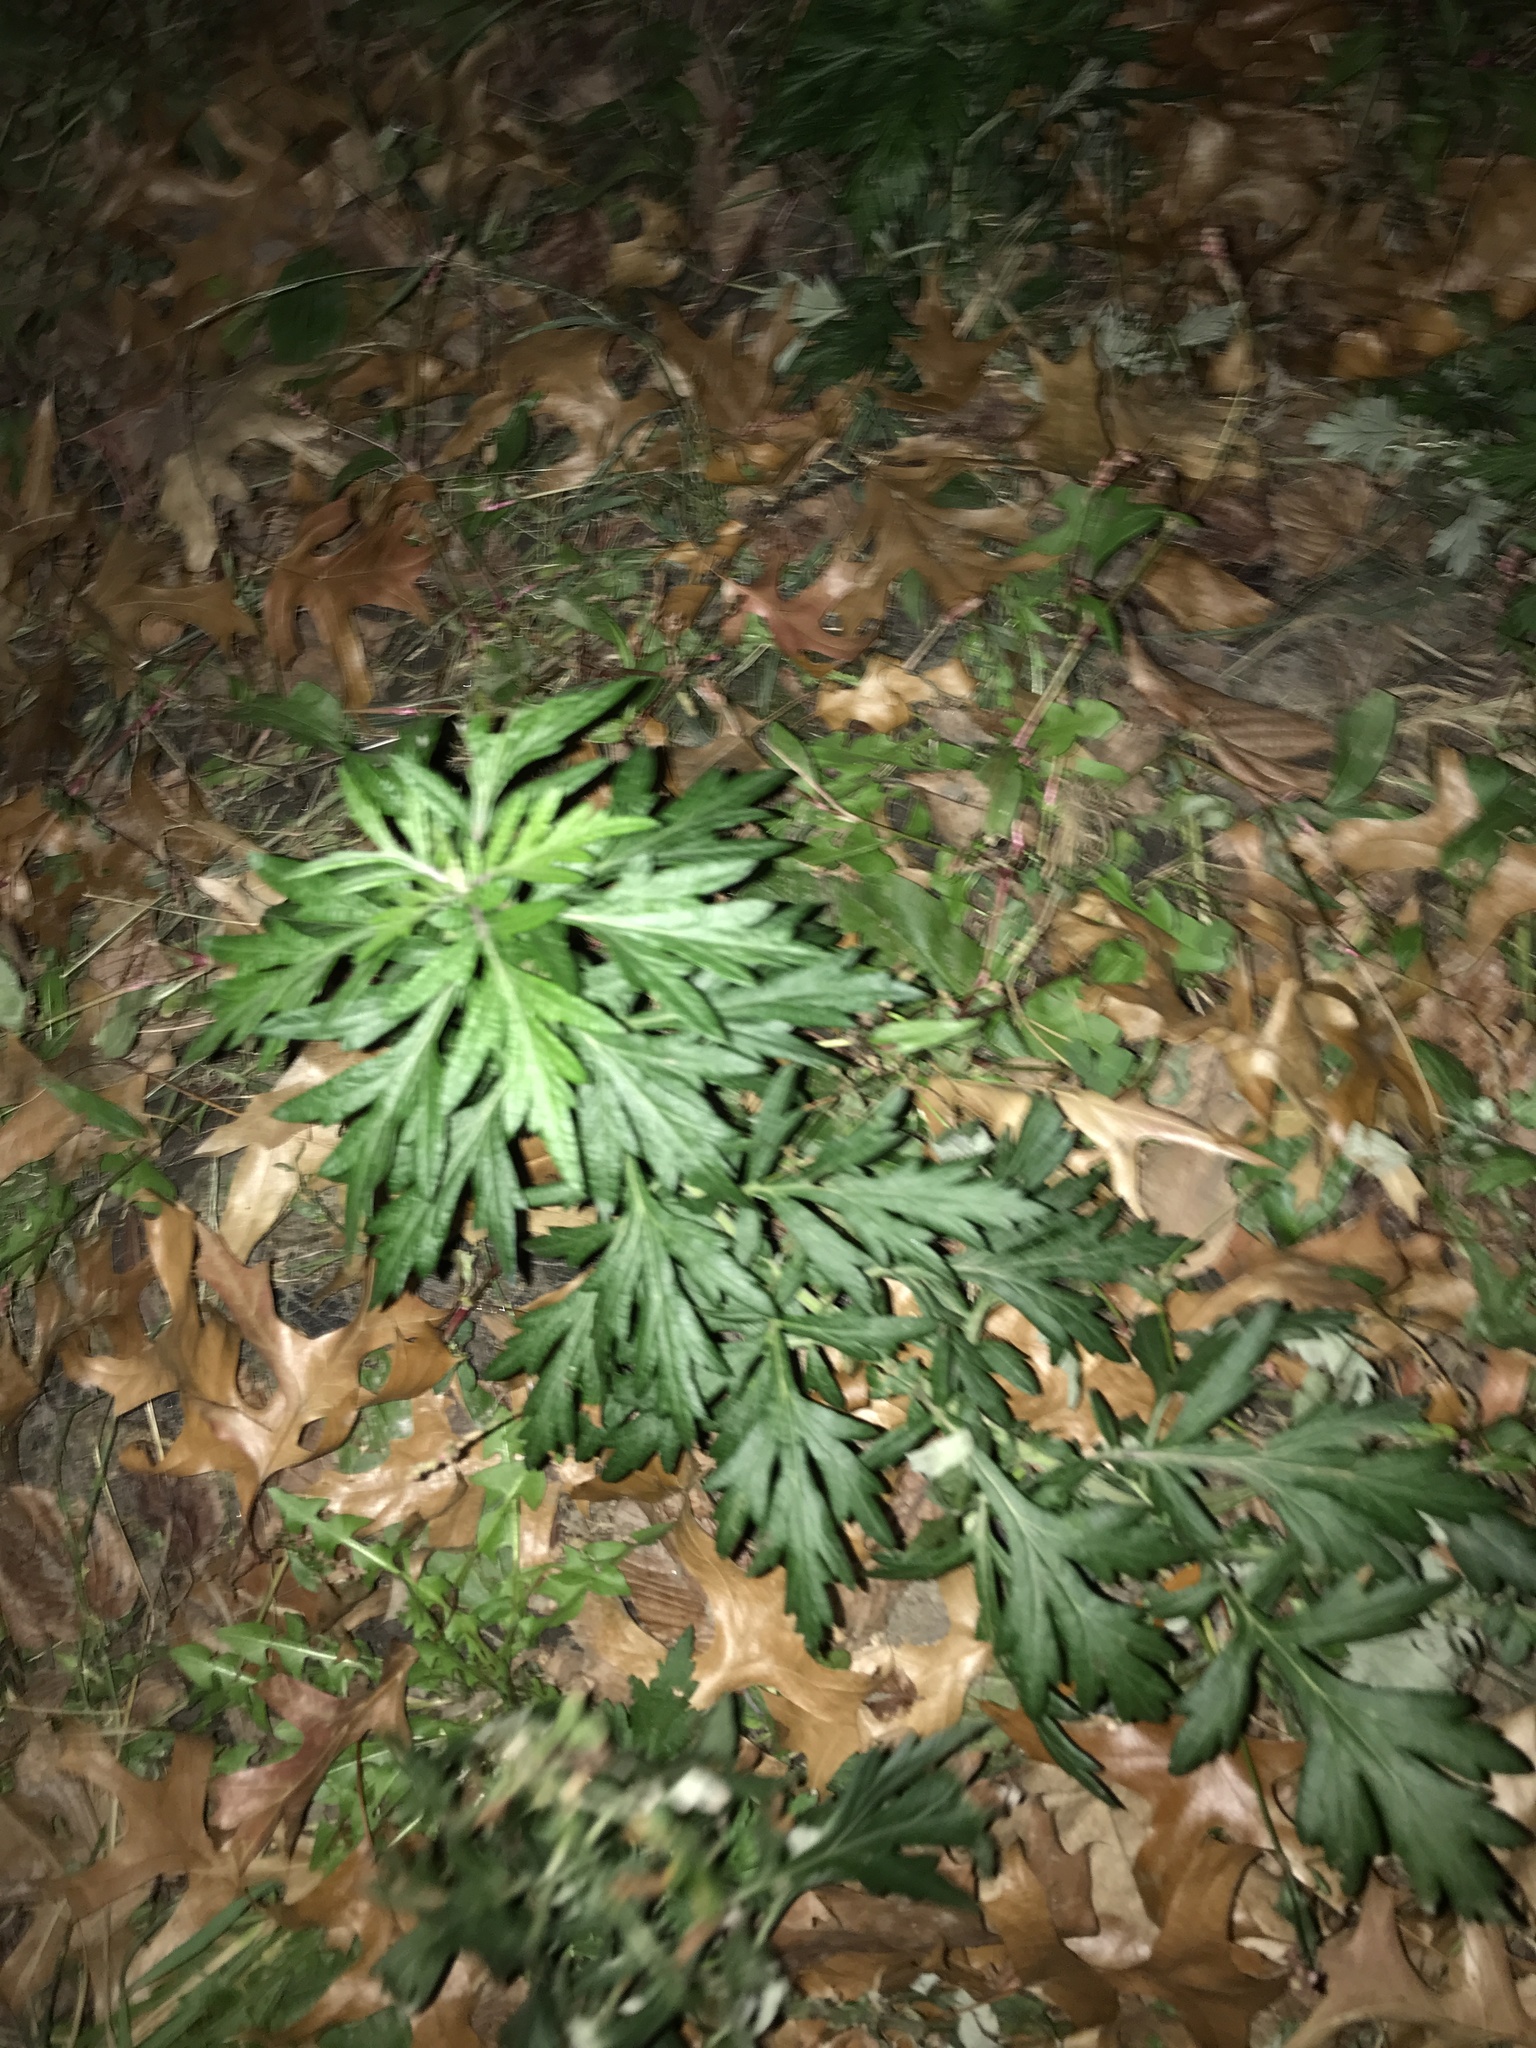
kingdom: Plantae
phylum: Tracheophyta
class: Magnoliopsida
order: Asterales
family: Asteraceae
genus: Artemisia
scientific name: Artemisia vulgaris
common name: Mugwort
